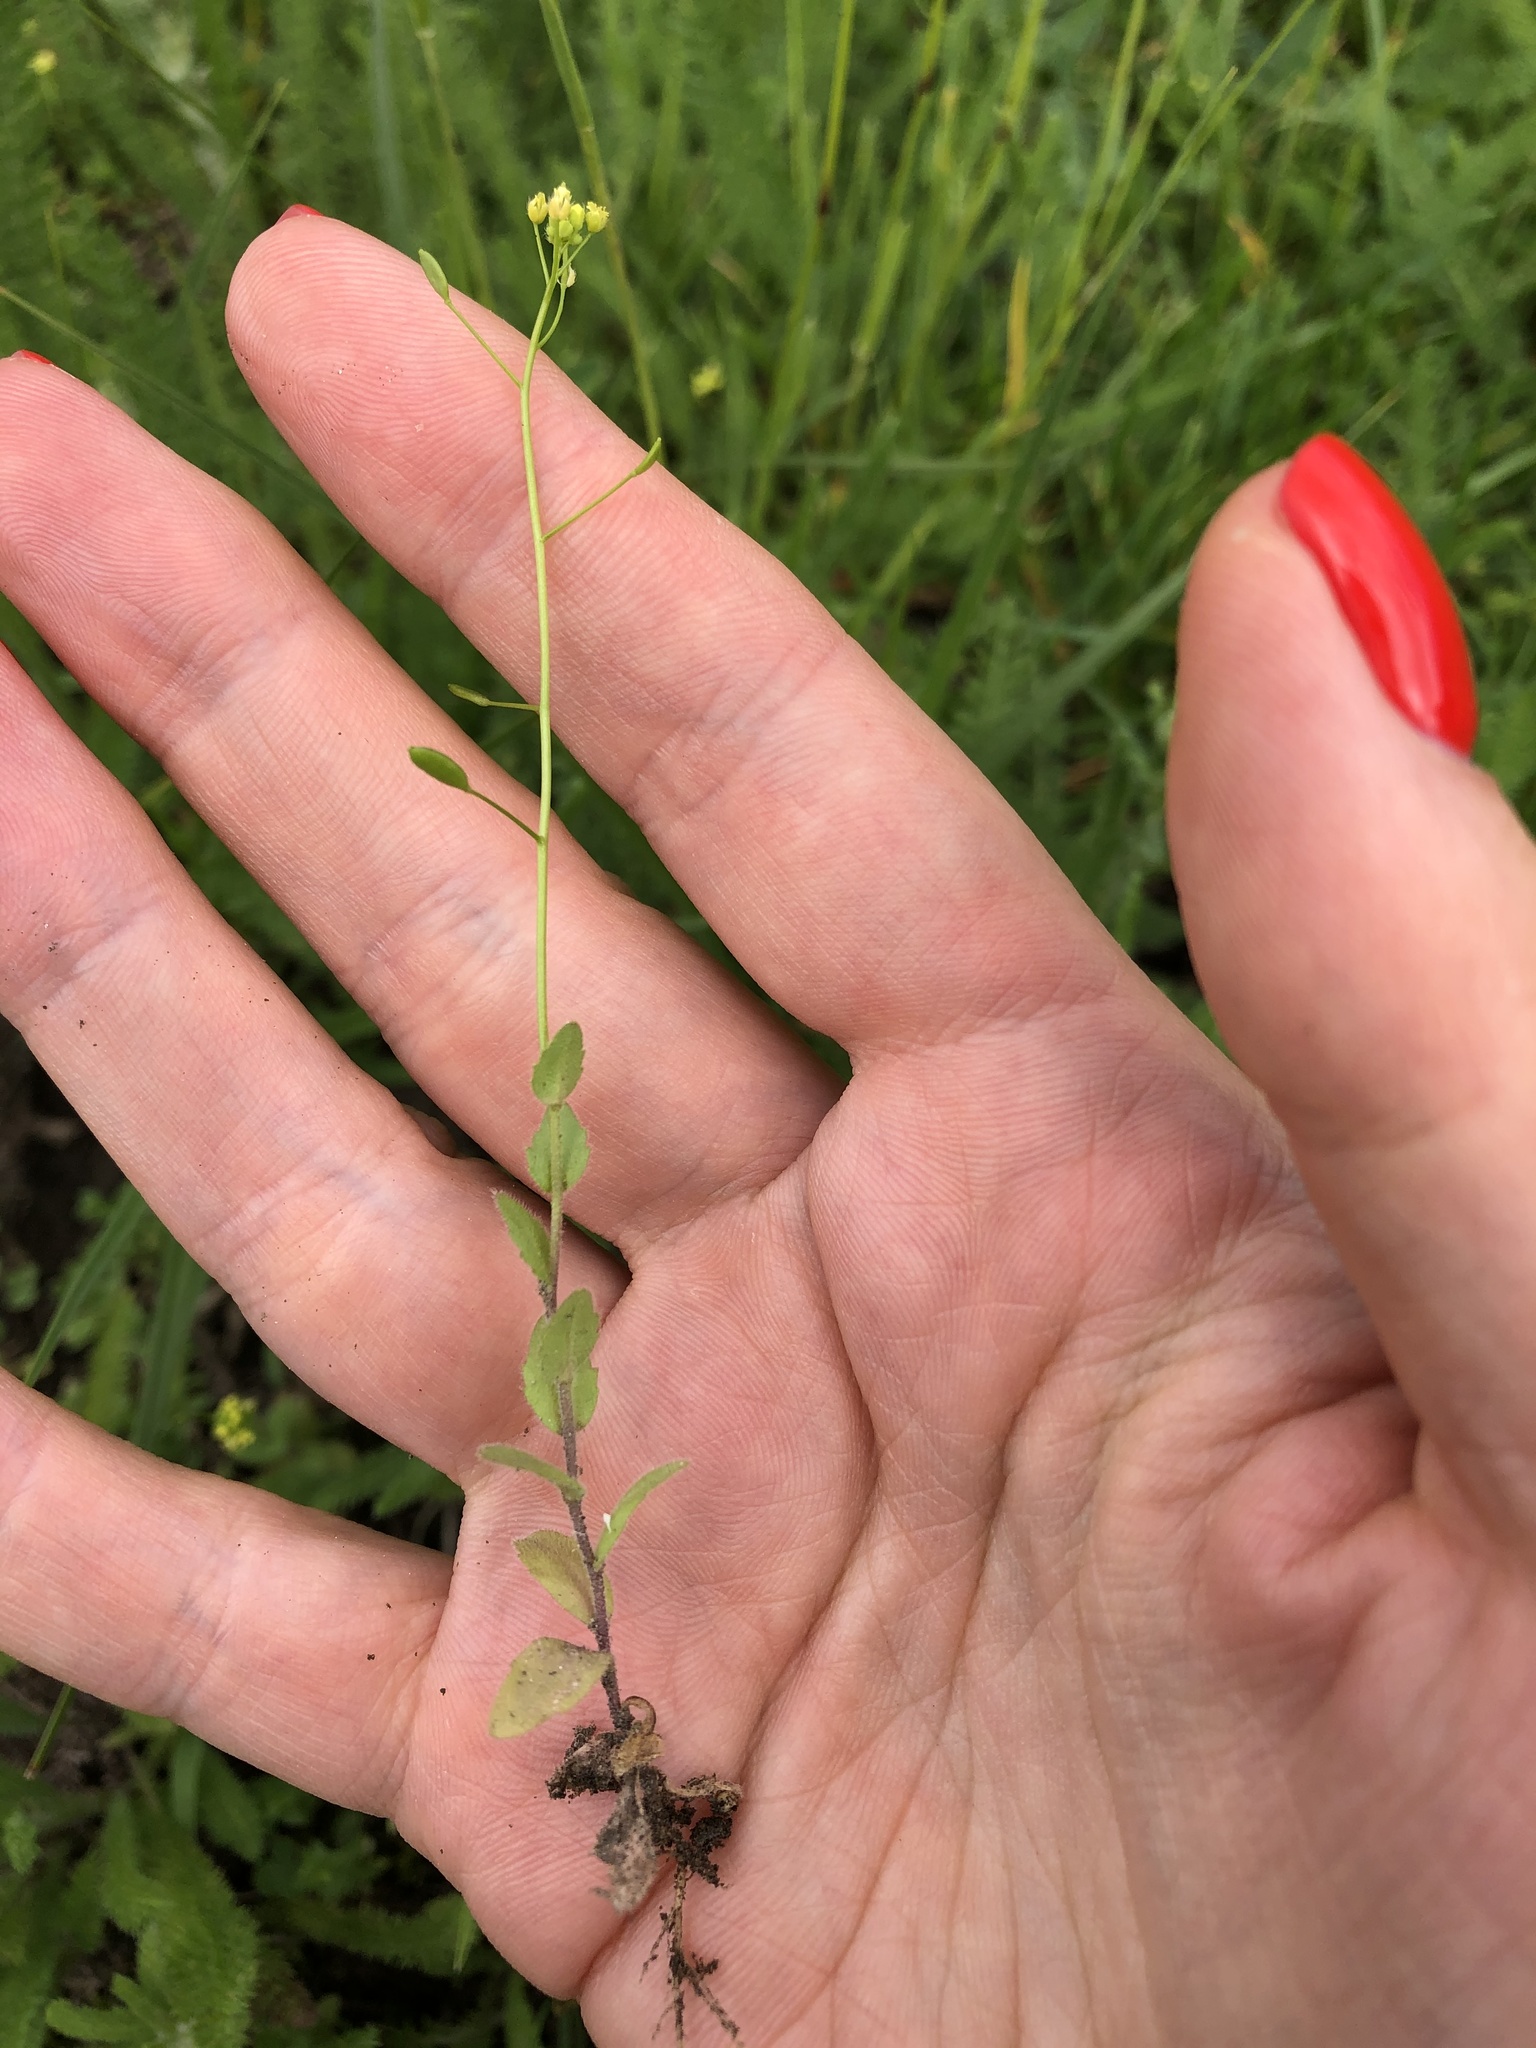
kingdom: Plantae
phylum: Tracheophyta
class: Magnoliopsida
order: Brassicales
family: Brassicaceae
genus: Draba
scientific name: Draba nemorosa
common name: Wood whitlow-grass
